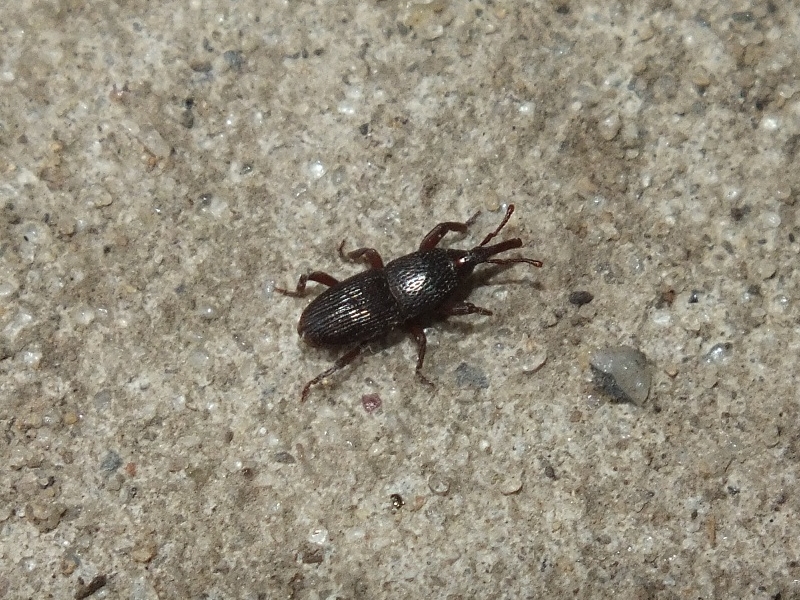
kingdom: Animalia
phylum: Arthropoda
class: Insecta
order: Coleoptera
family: Dryophthoridae
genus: Sitophilus
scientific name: Sitophilus granarius
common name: Granary weevil
